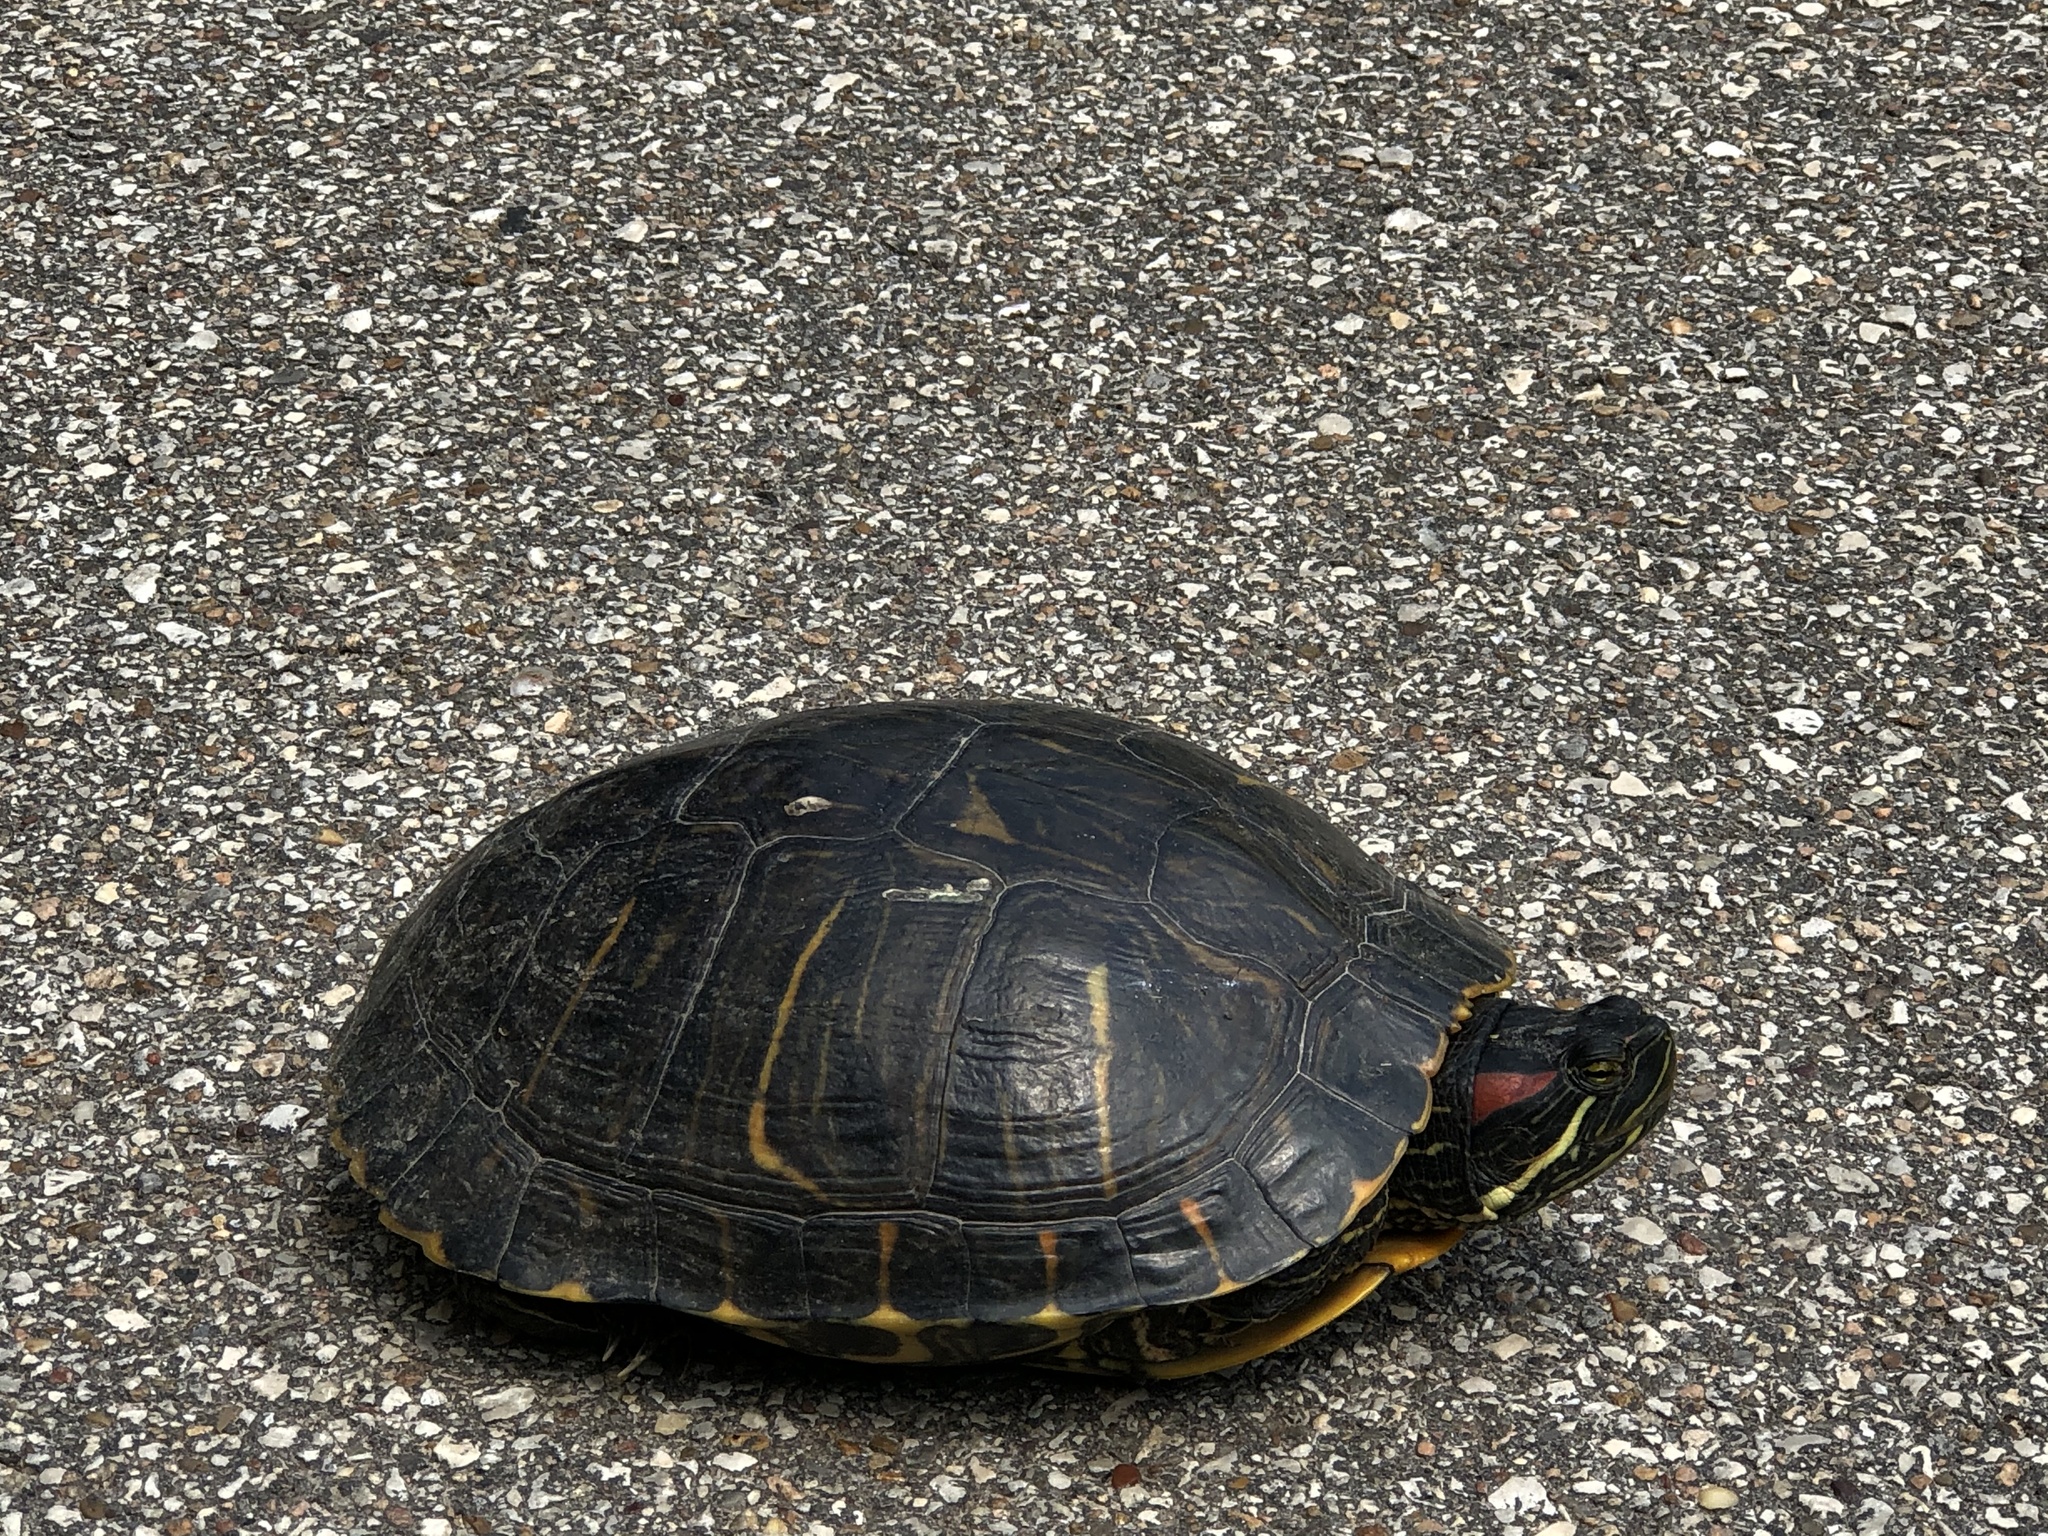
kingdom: Animalia
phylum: Chordata
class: Testudines
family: Emydidae
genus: Trachemys
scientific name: Trachemys scripta
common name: Slider
